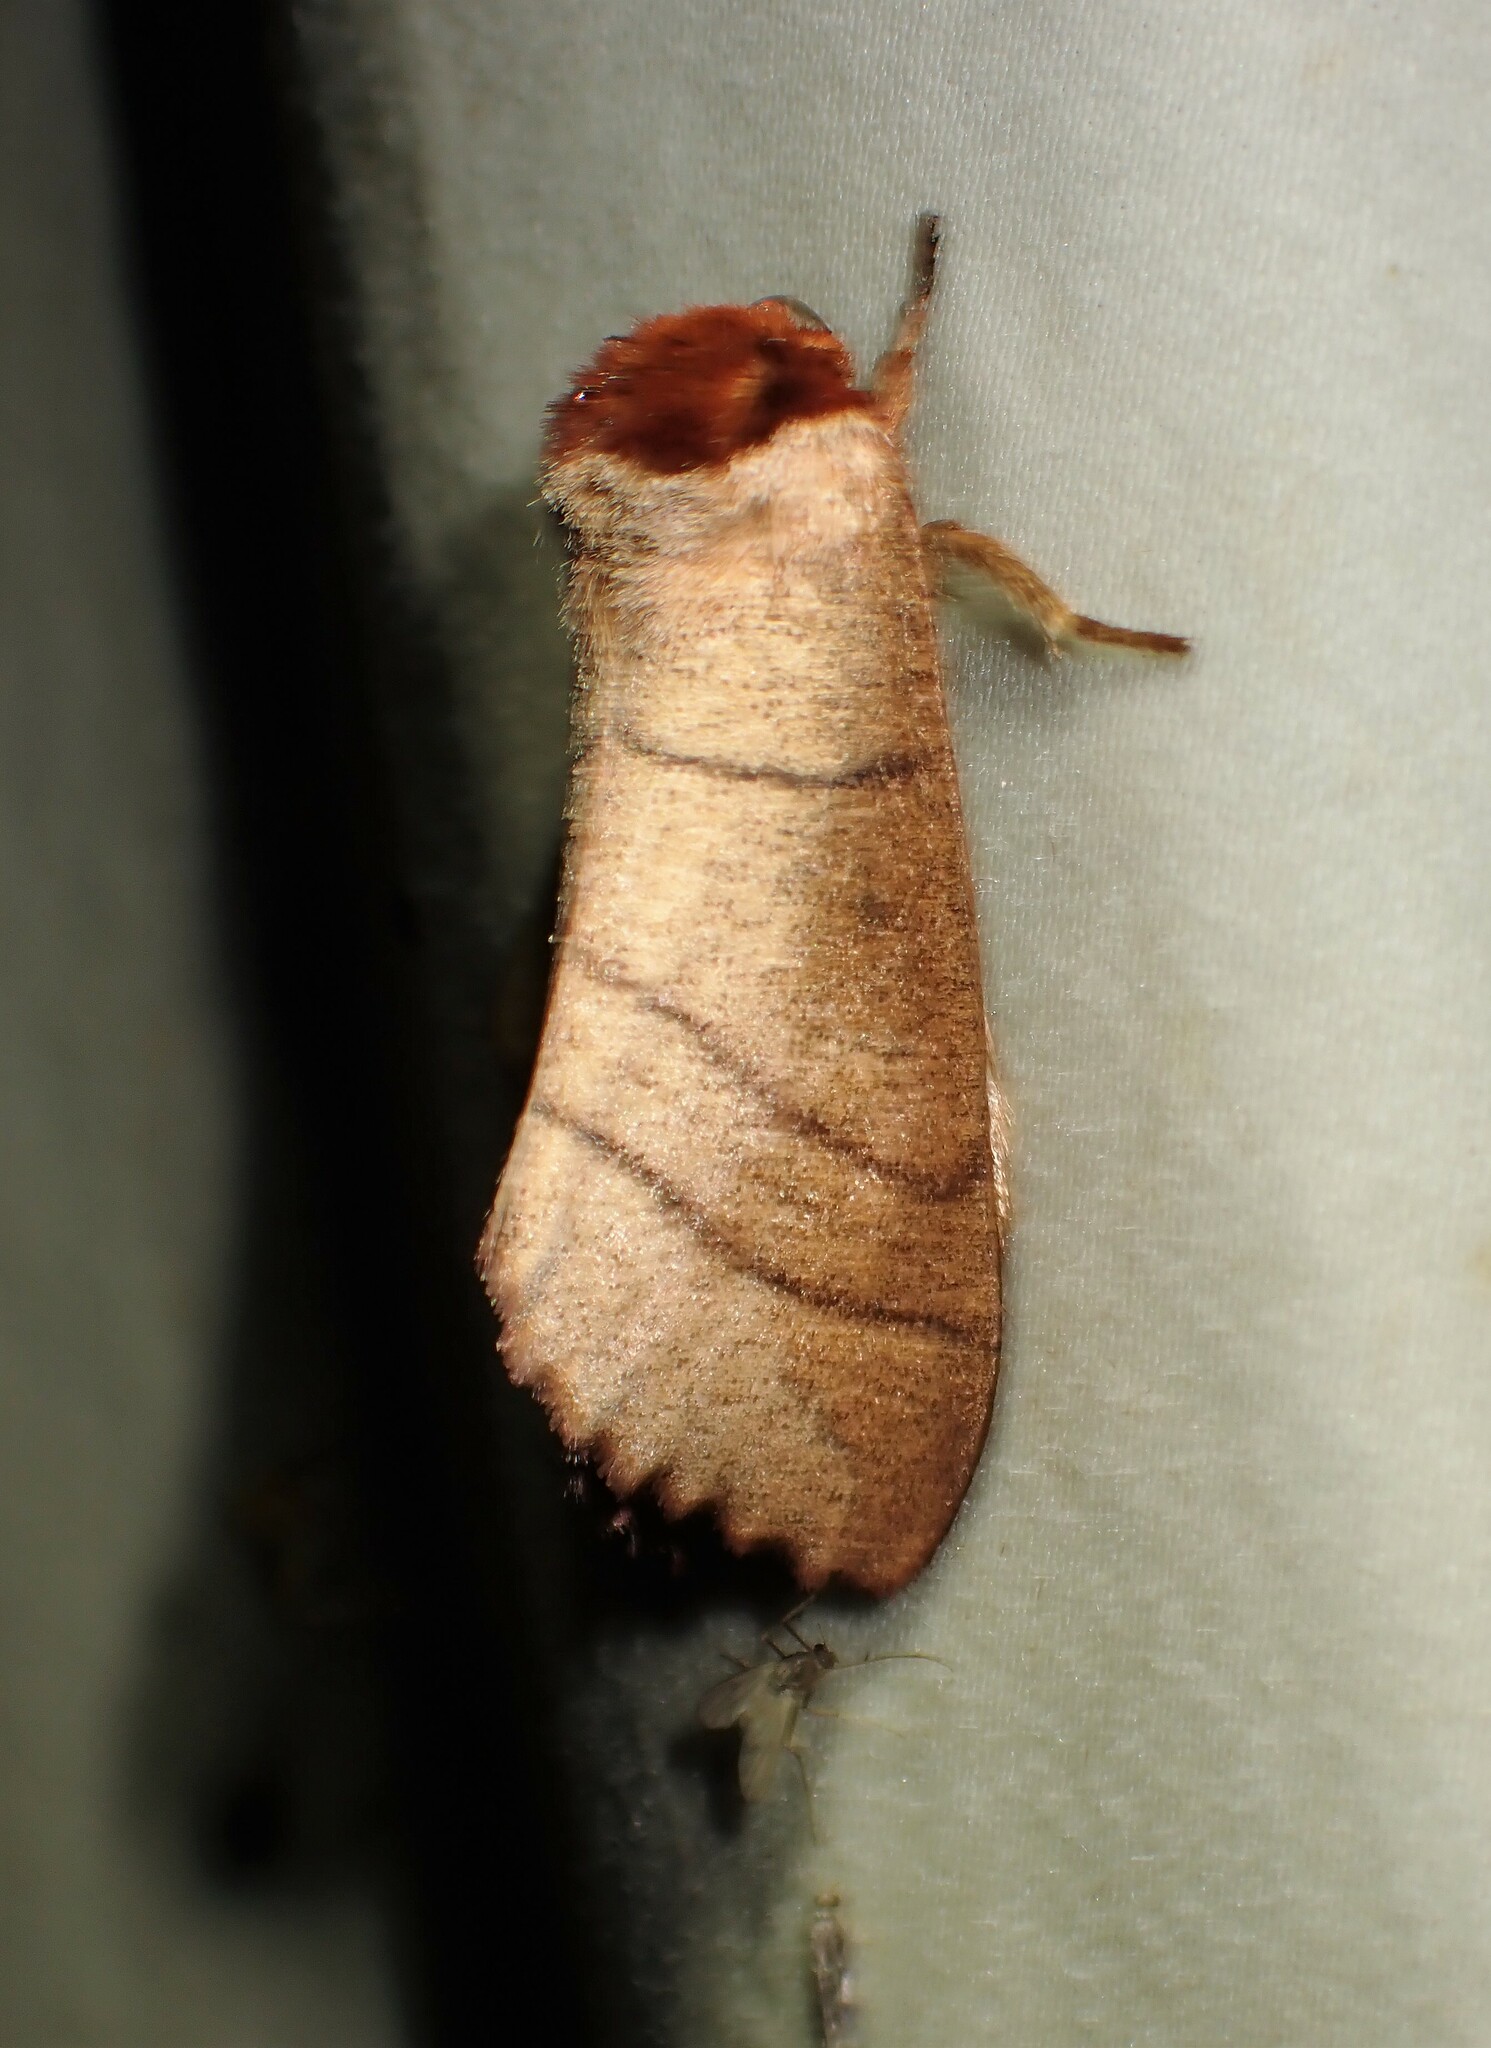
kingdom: Animalia
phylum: Arthropoda
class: Insecta
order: Lepidoptera
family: Notodontidae
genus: Datana
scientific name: Datana ministra
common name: Yellow-necked caterpillar moth
